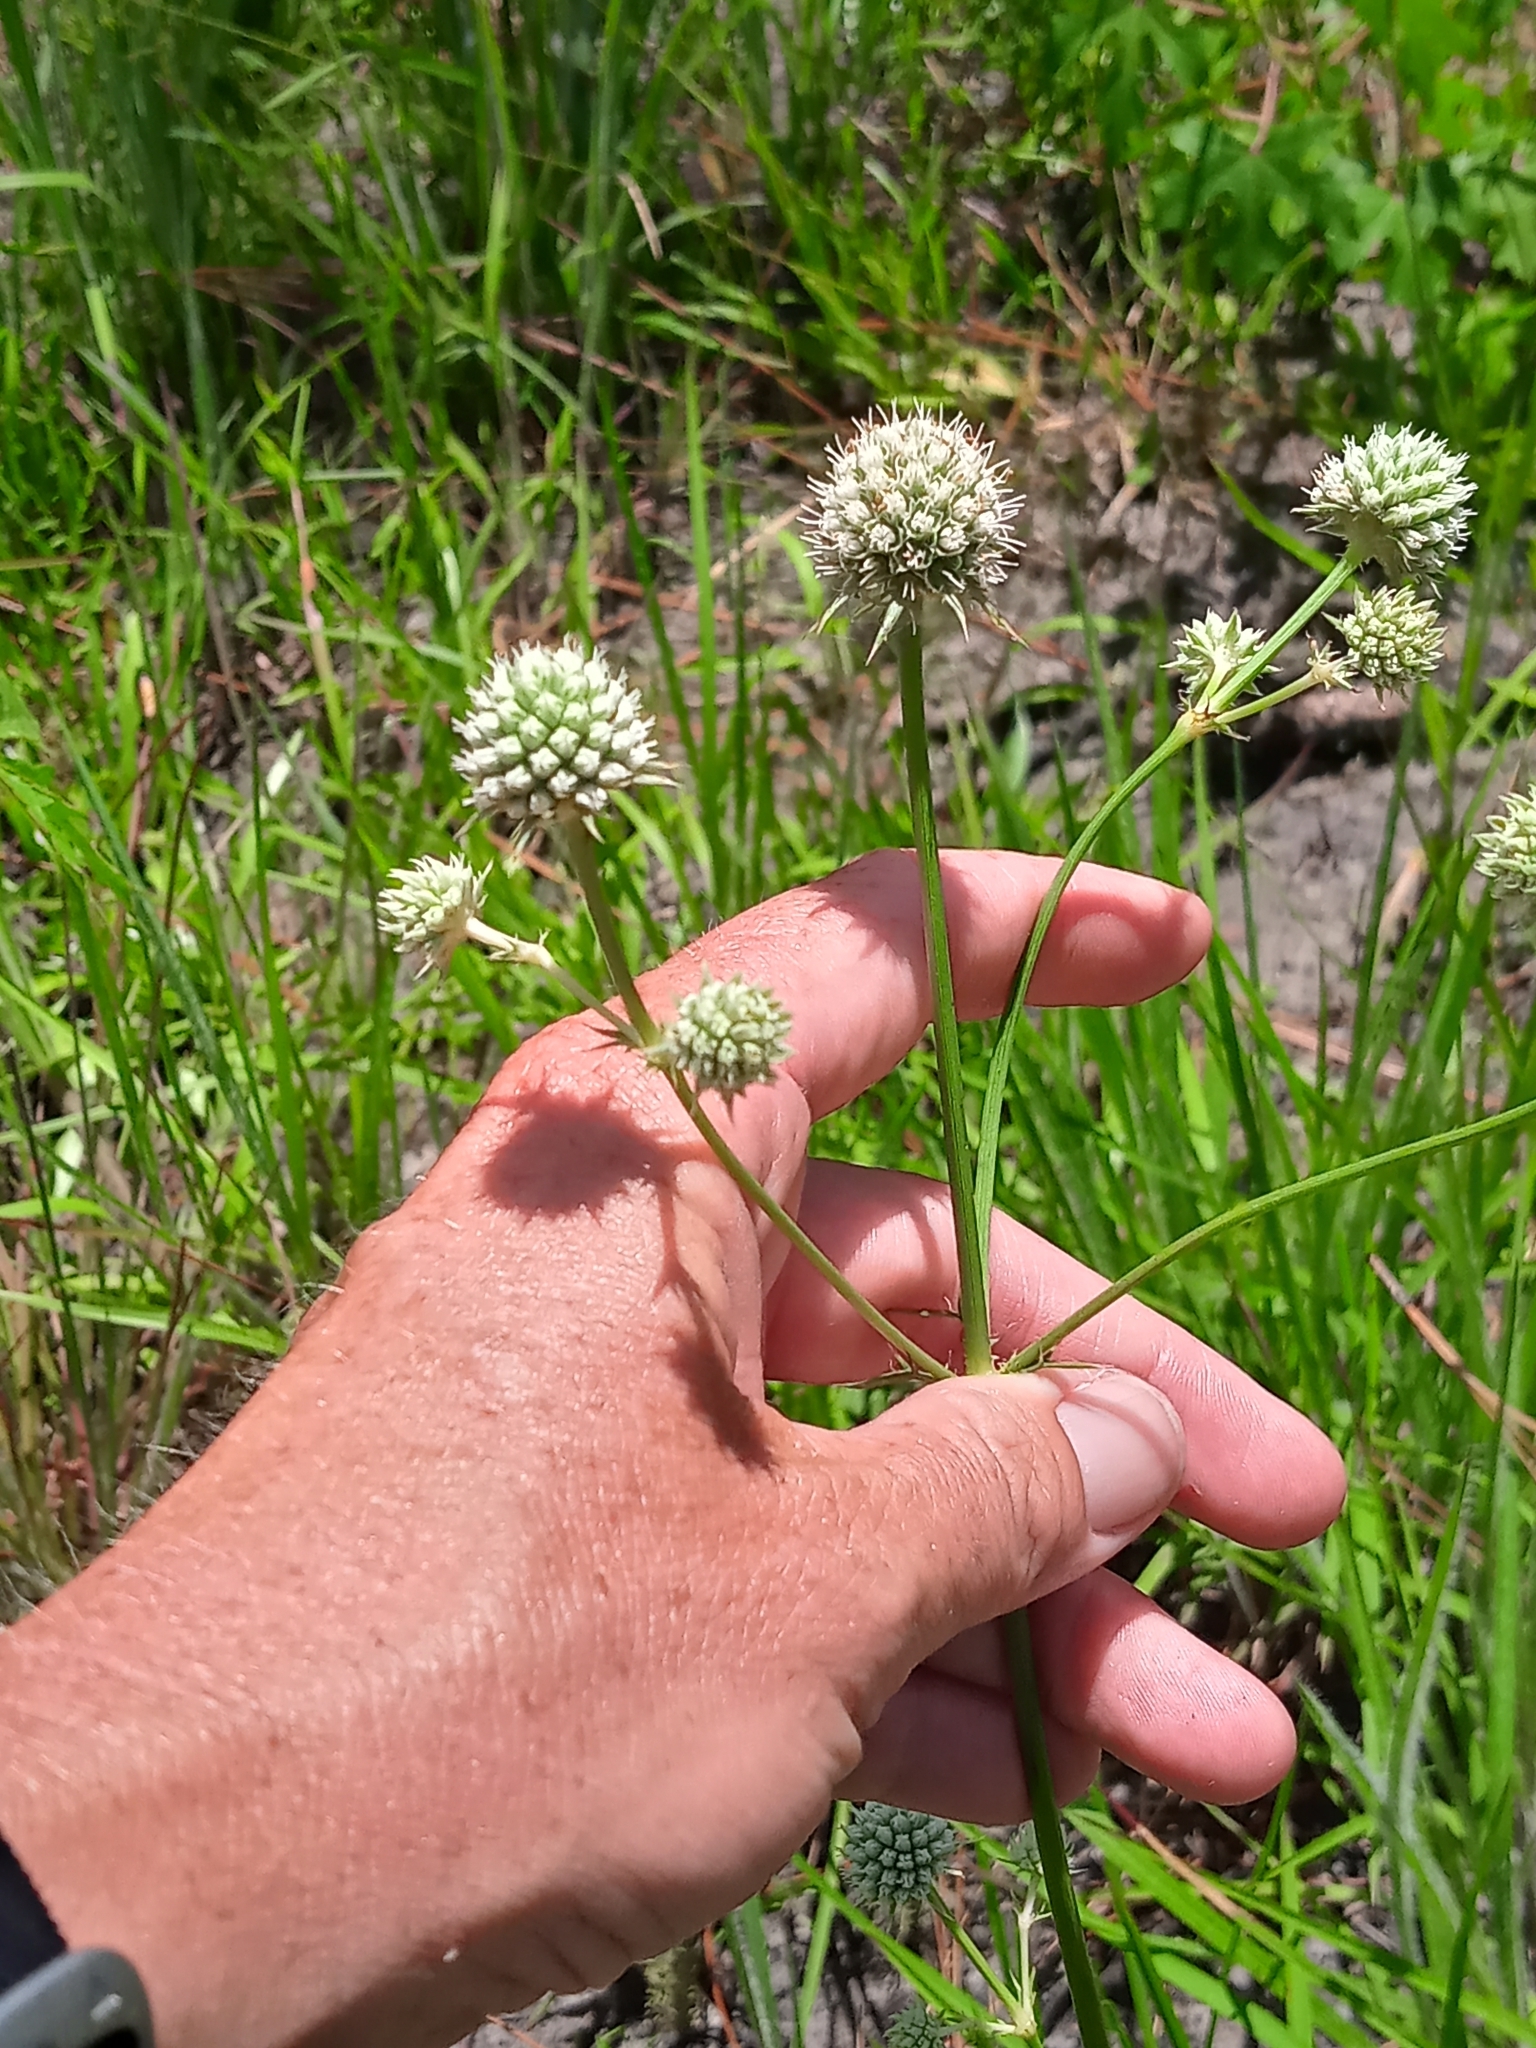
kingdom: Plantae
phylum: Tracheophyta
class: Magnoliopsida
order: Apiales
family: Apiaceae
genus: Eryngium
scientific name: Eryngium yuccifolium
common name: Button eryngo
